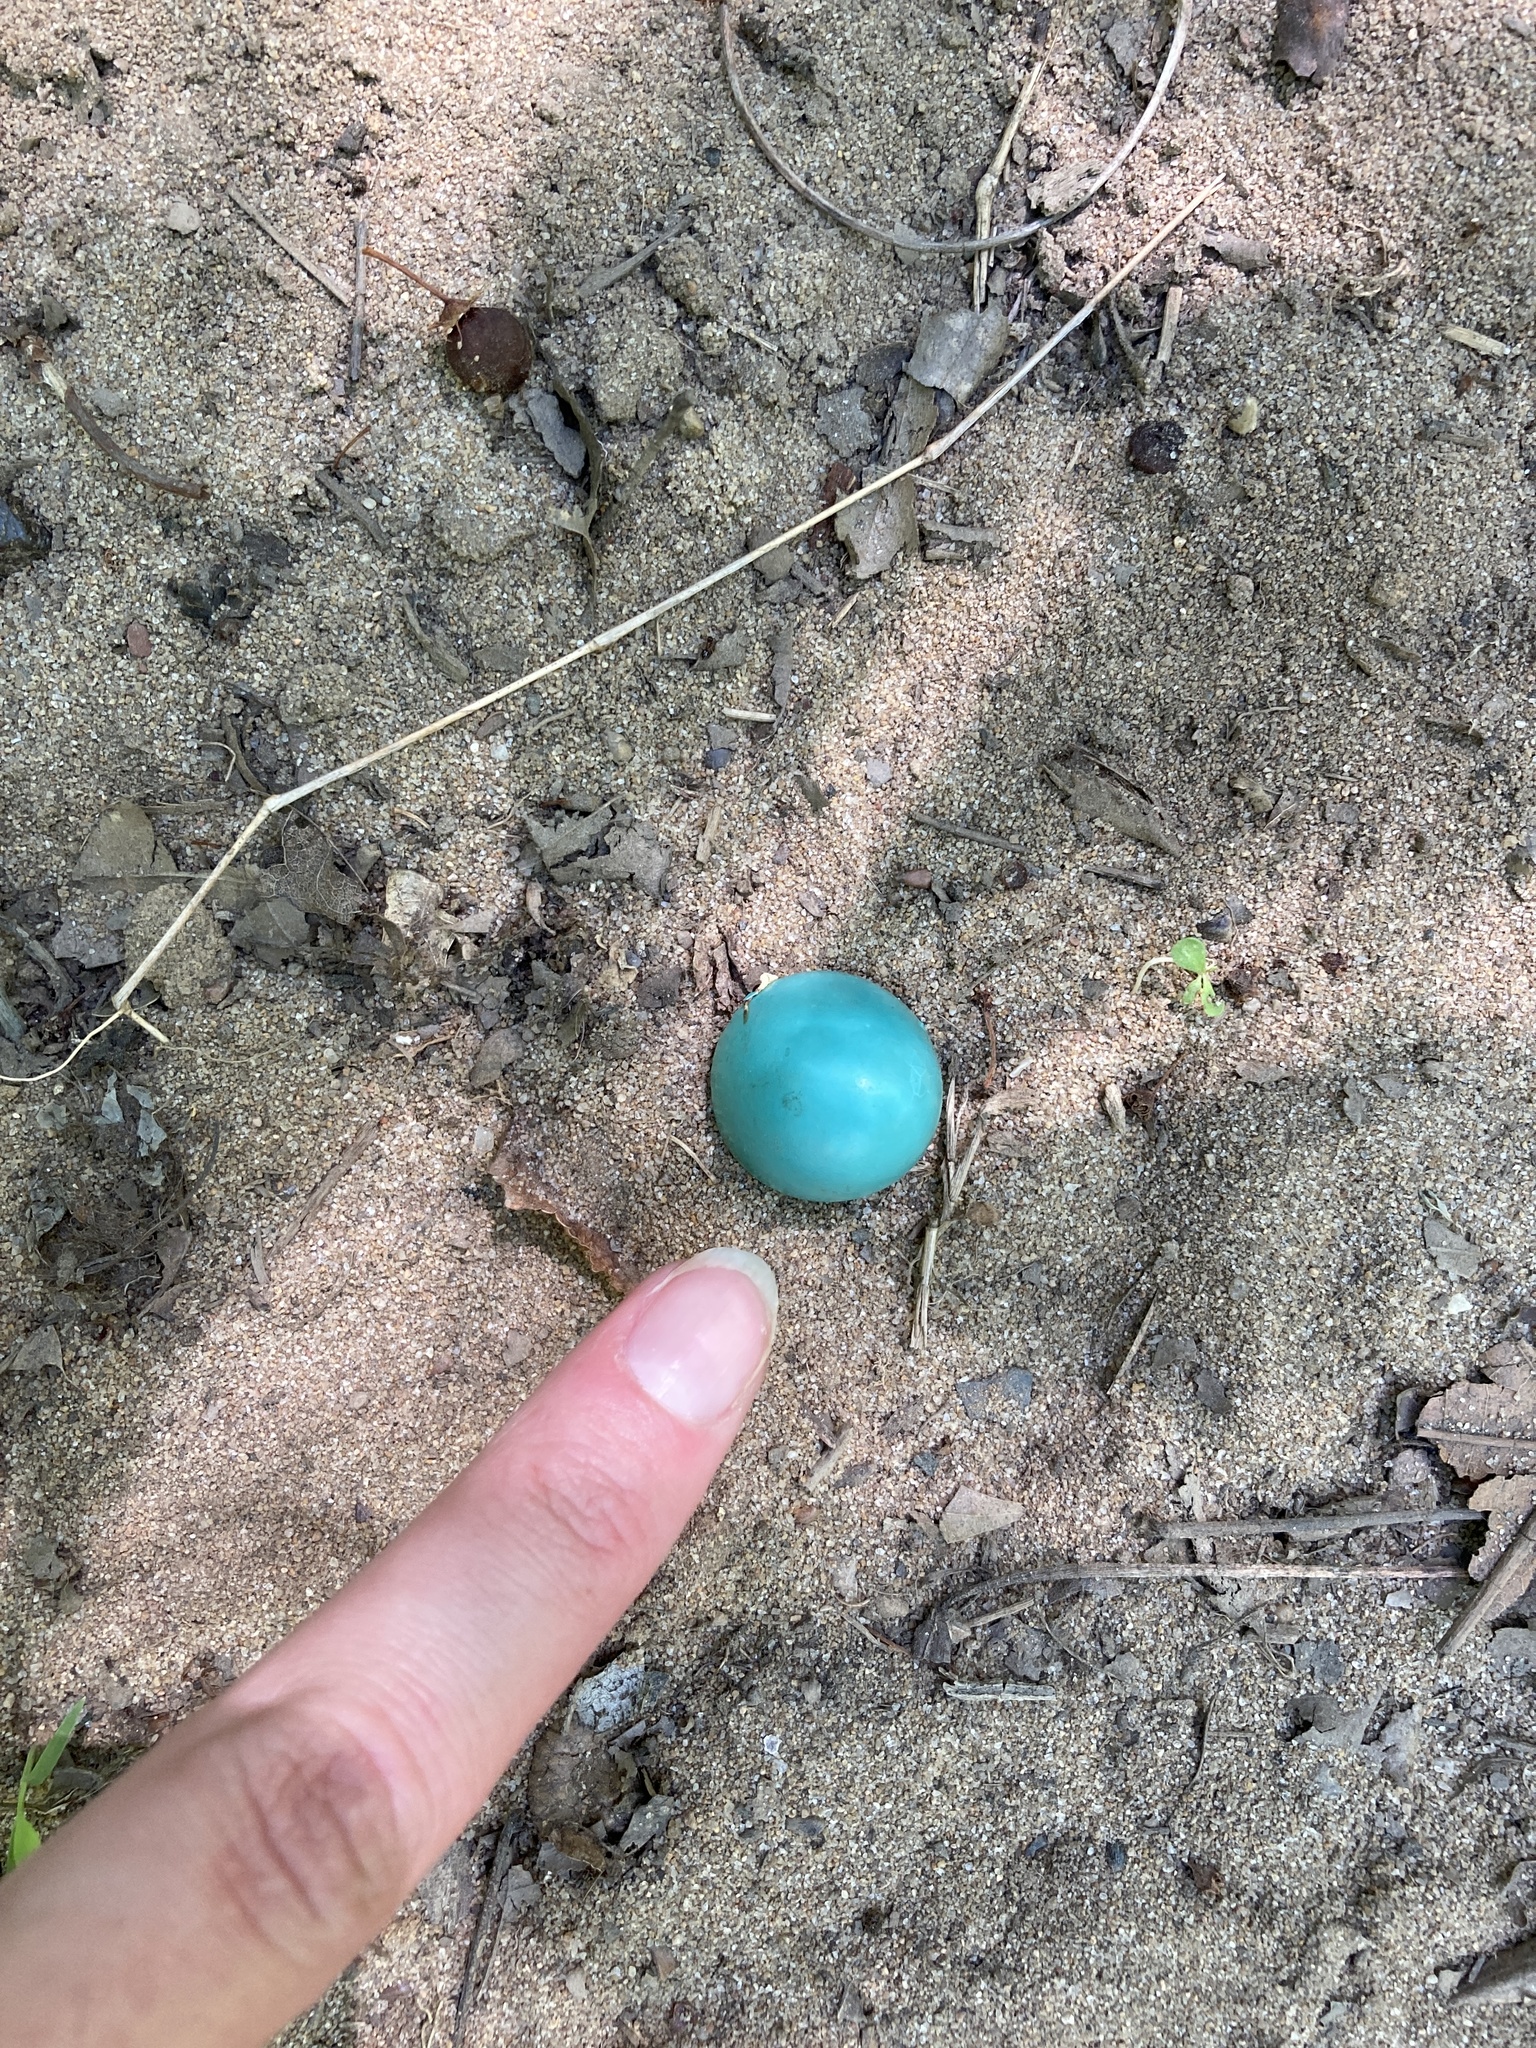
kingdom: Animalia
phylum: Chordata
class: Aves
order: Passeriformes
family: Turdidae
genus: Turdus
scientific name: Turdus migratorius
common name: American robin
